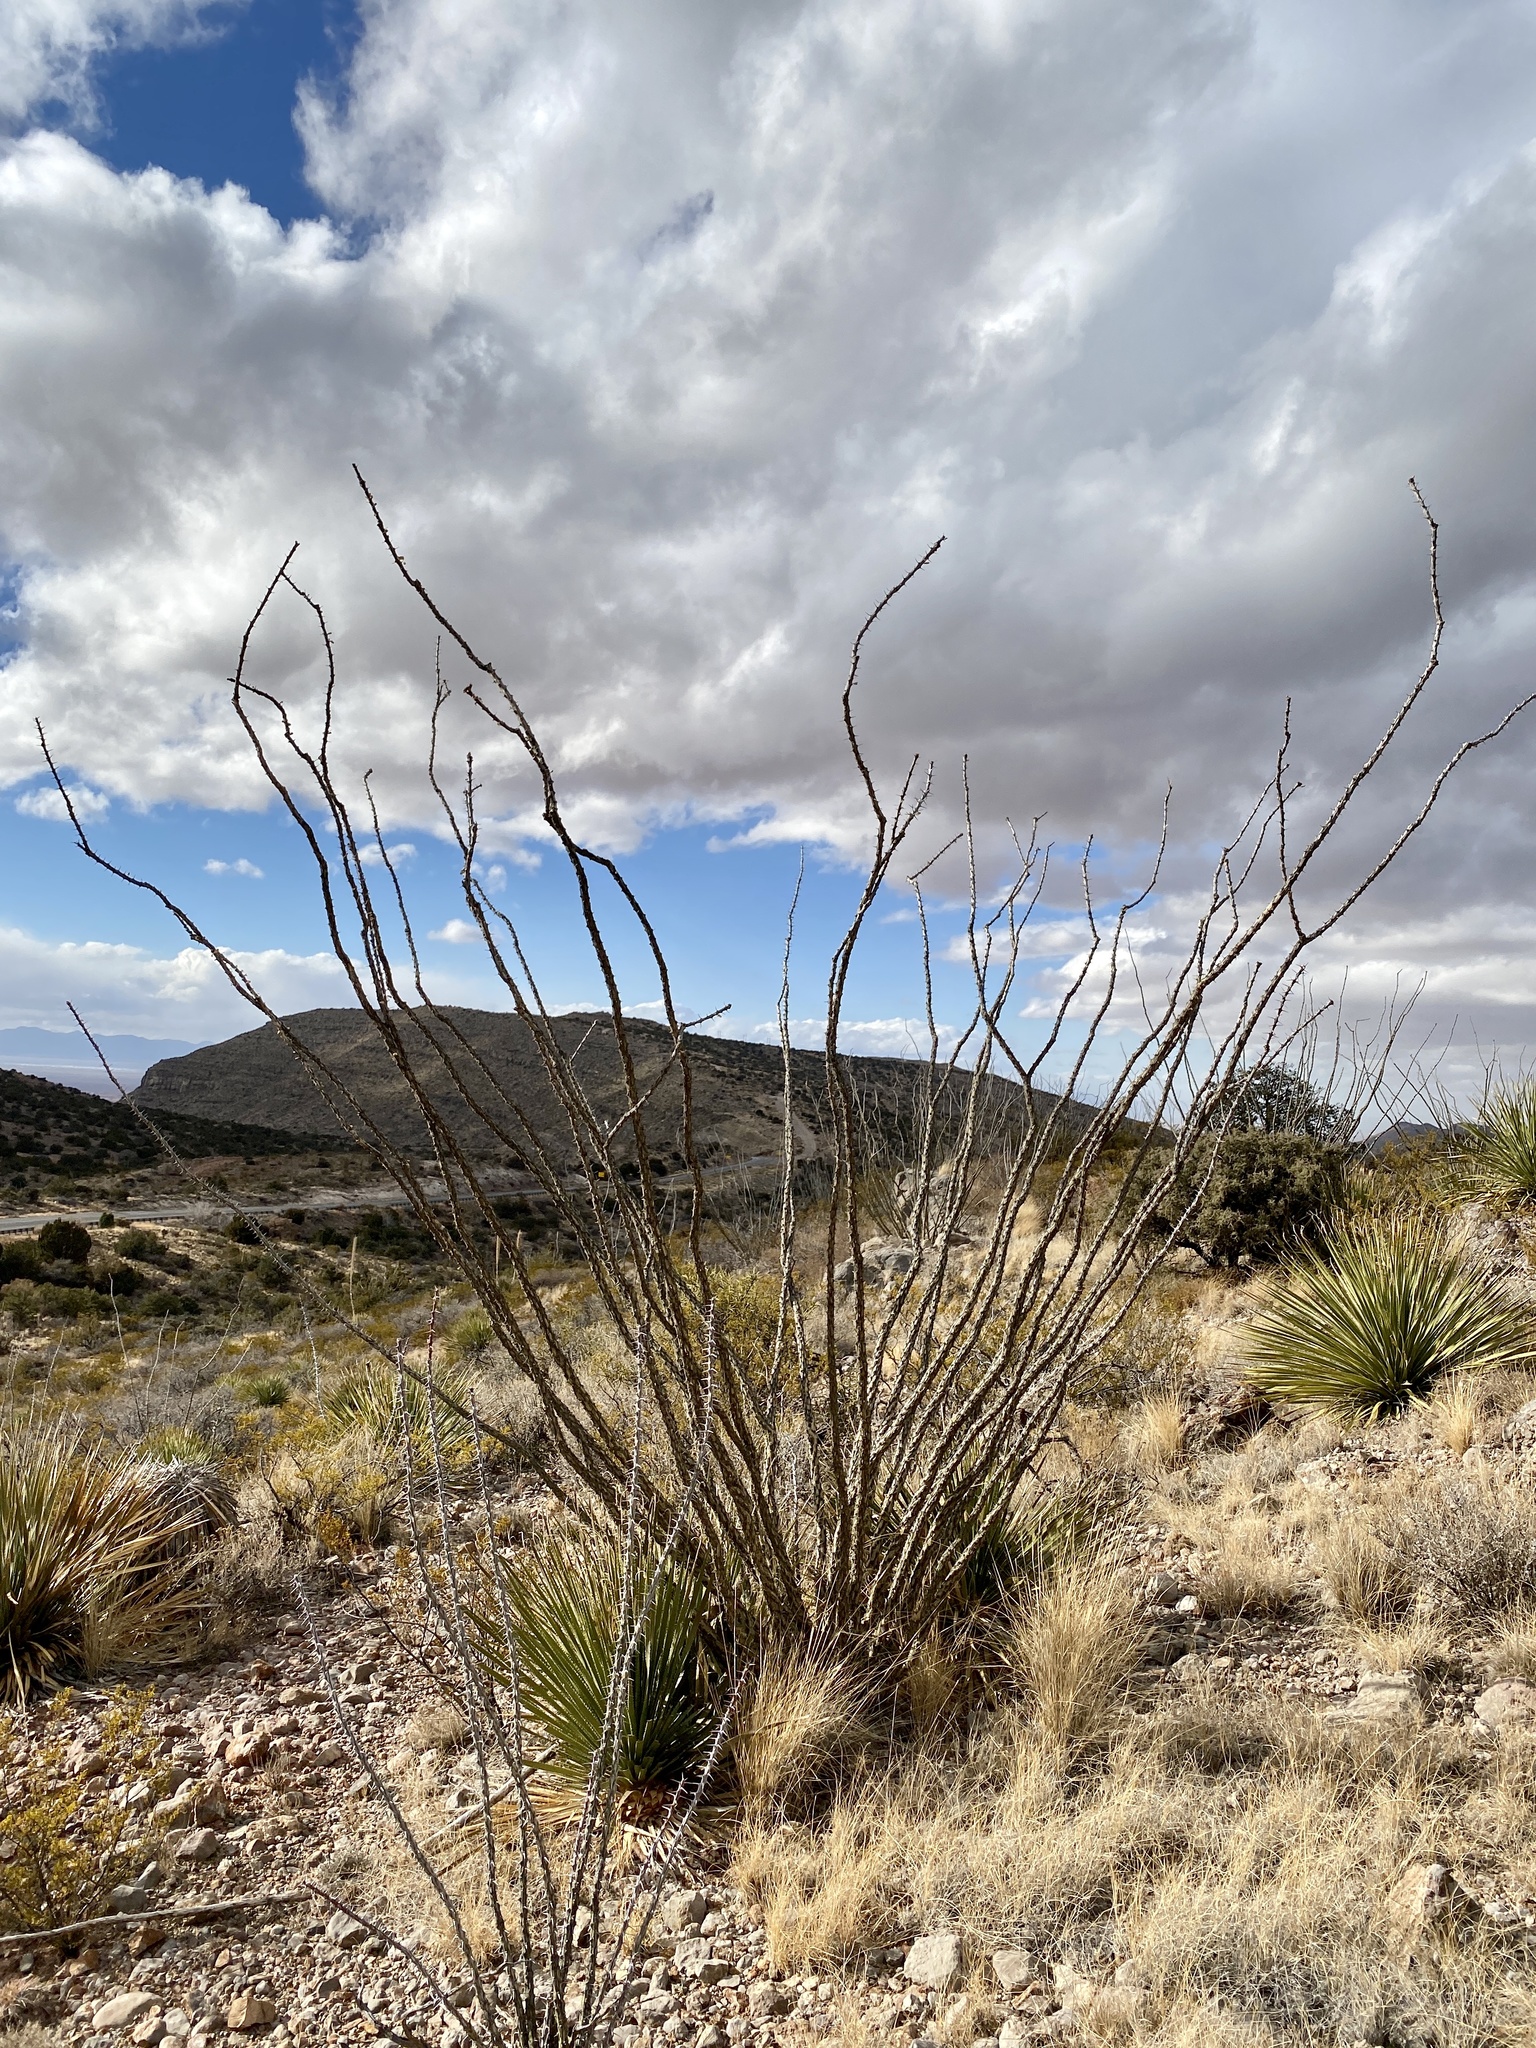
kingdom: Plantae
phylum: Tracheophyta
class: Magnoliopsida
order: Ericales
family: Fouquieriaceae
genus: Fouquieria
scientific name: Fouquieria splendens
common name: Vine-cactus
